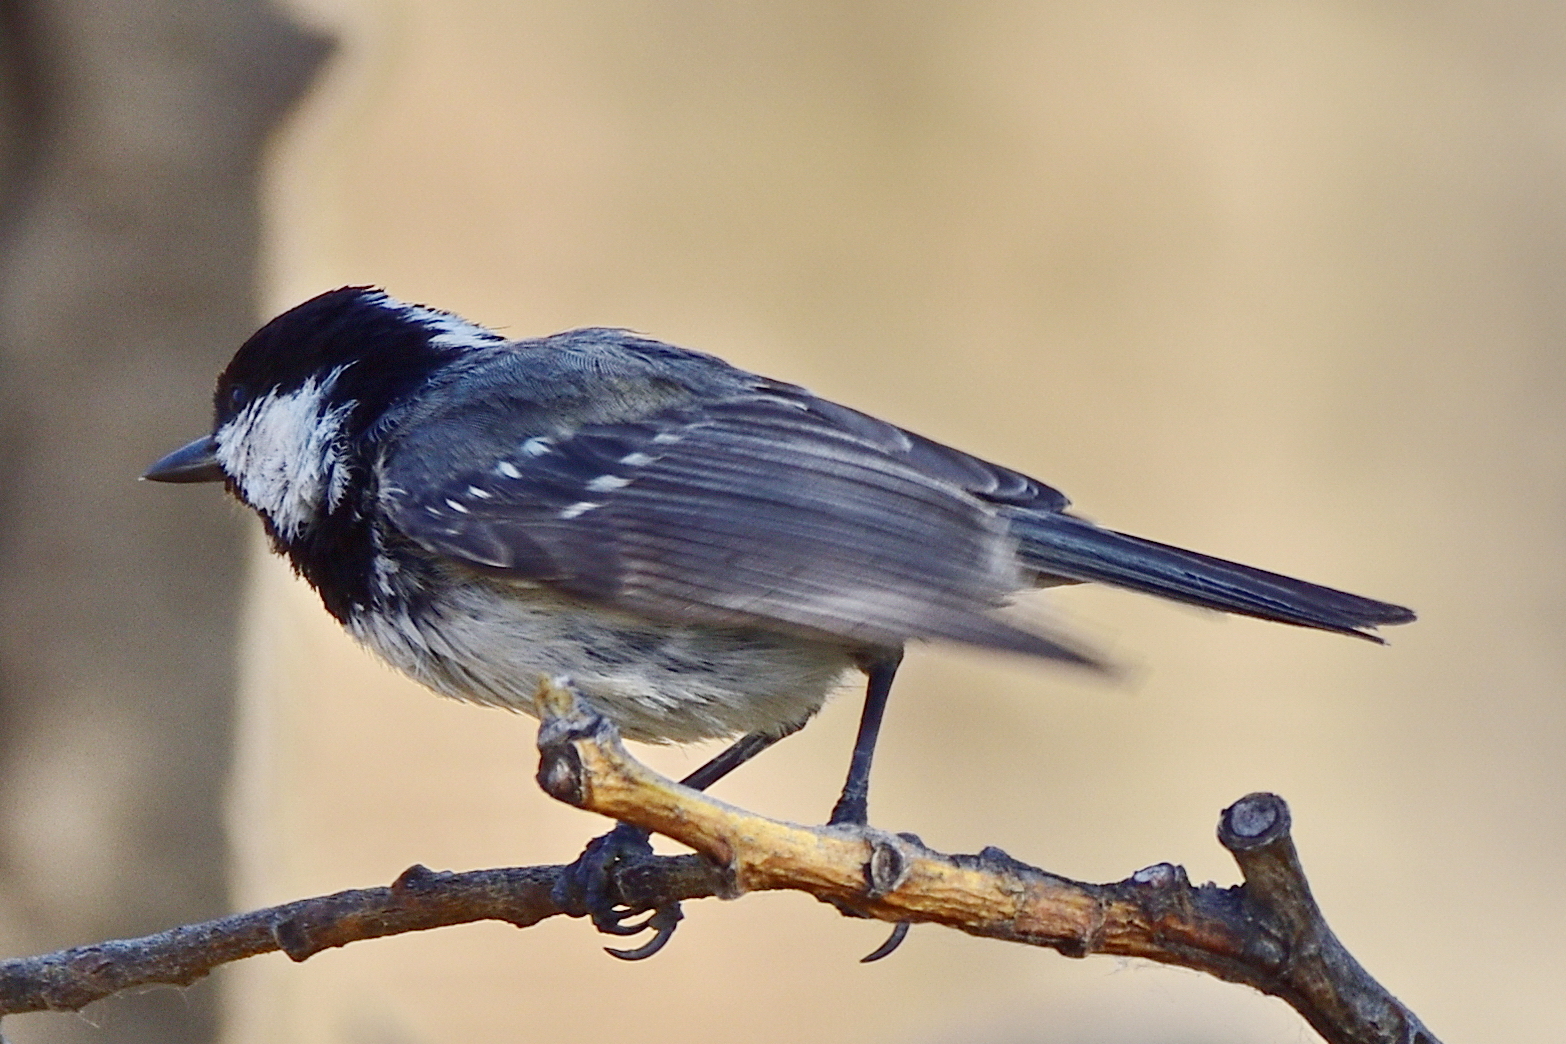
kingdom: Animalia
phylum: Chordata
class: Aves
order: Passeriformes
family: Paridae
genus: Periparus
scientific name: Periparus ater
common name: Coal tit
